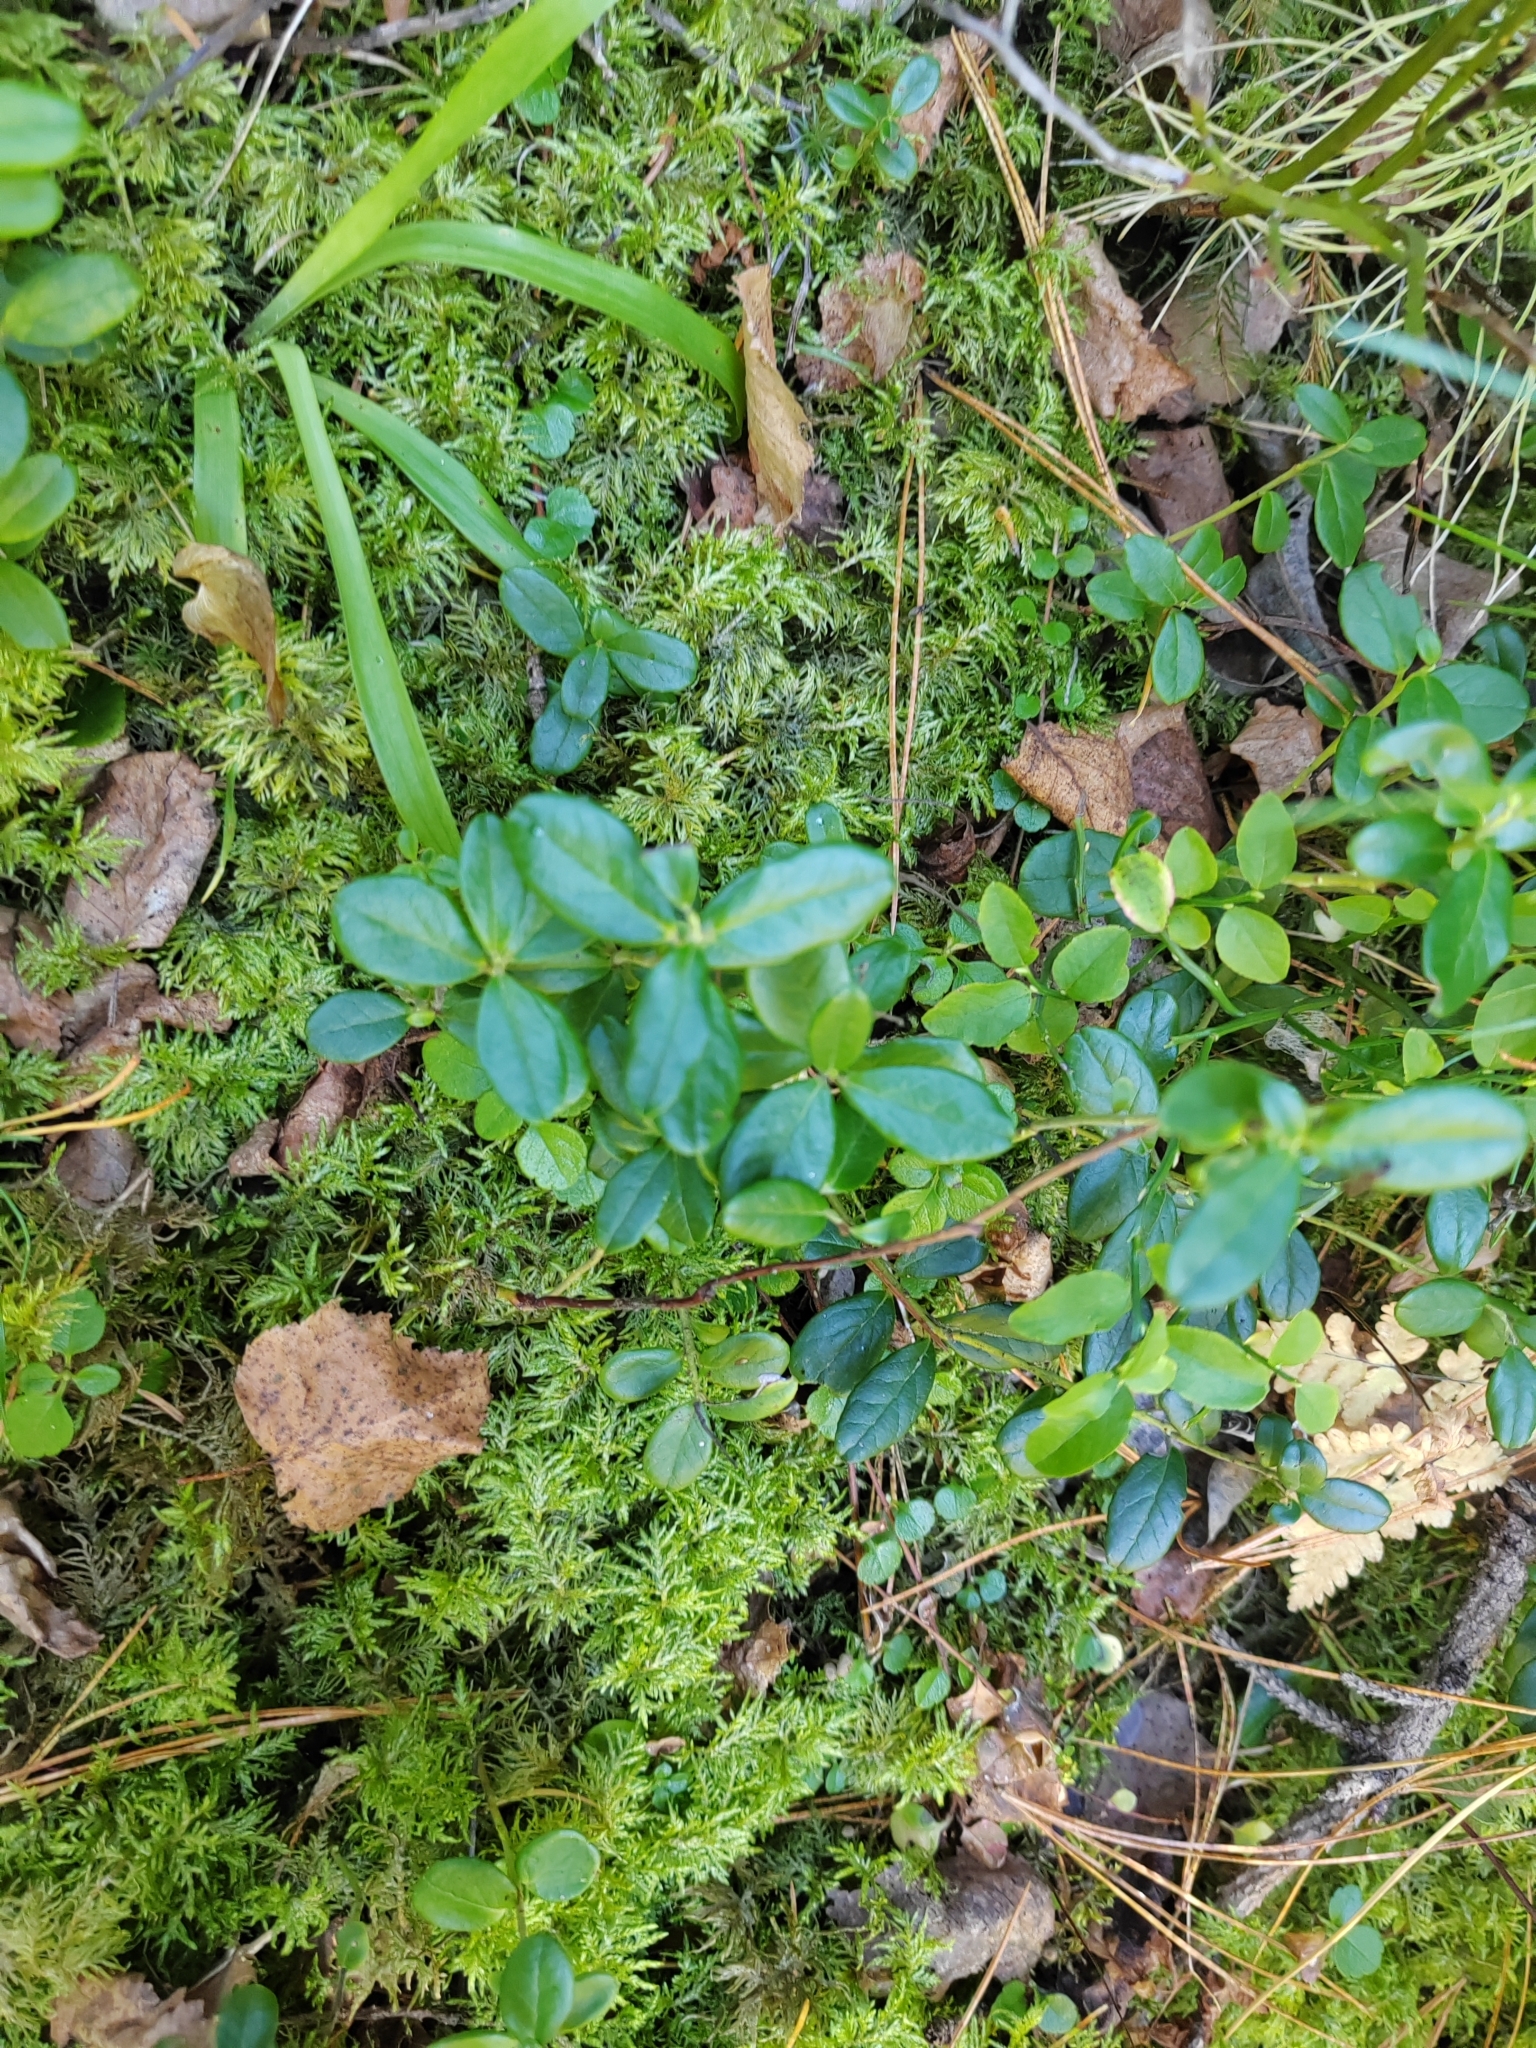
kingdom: Plantae
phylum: Tracheophyta
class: Magnoliopsida
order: Ericales
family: Ericaceae
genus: Vaccinium
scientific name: Vaccinium vitis-idaea
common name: Cowberry
